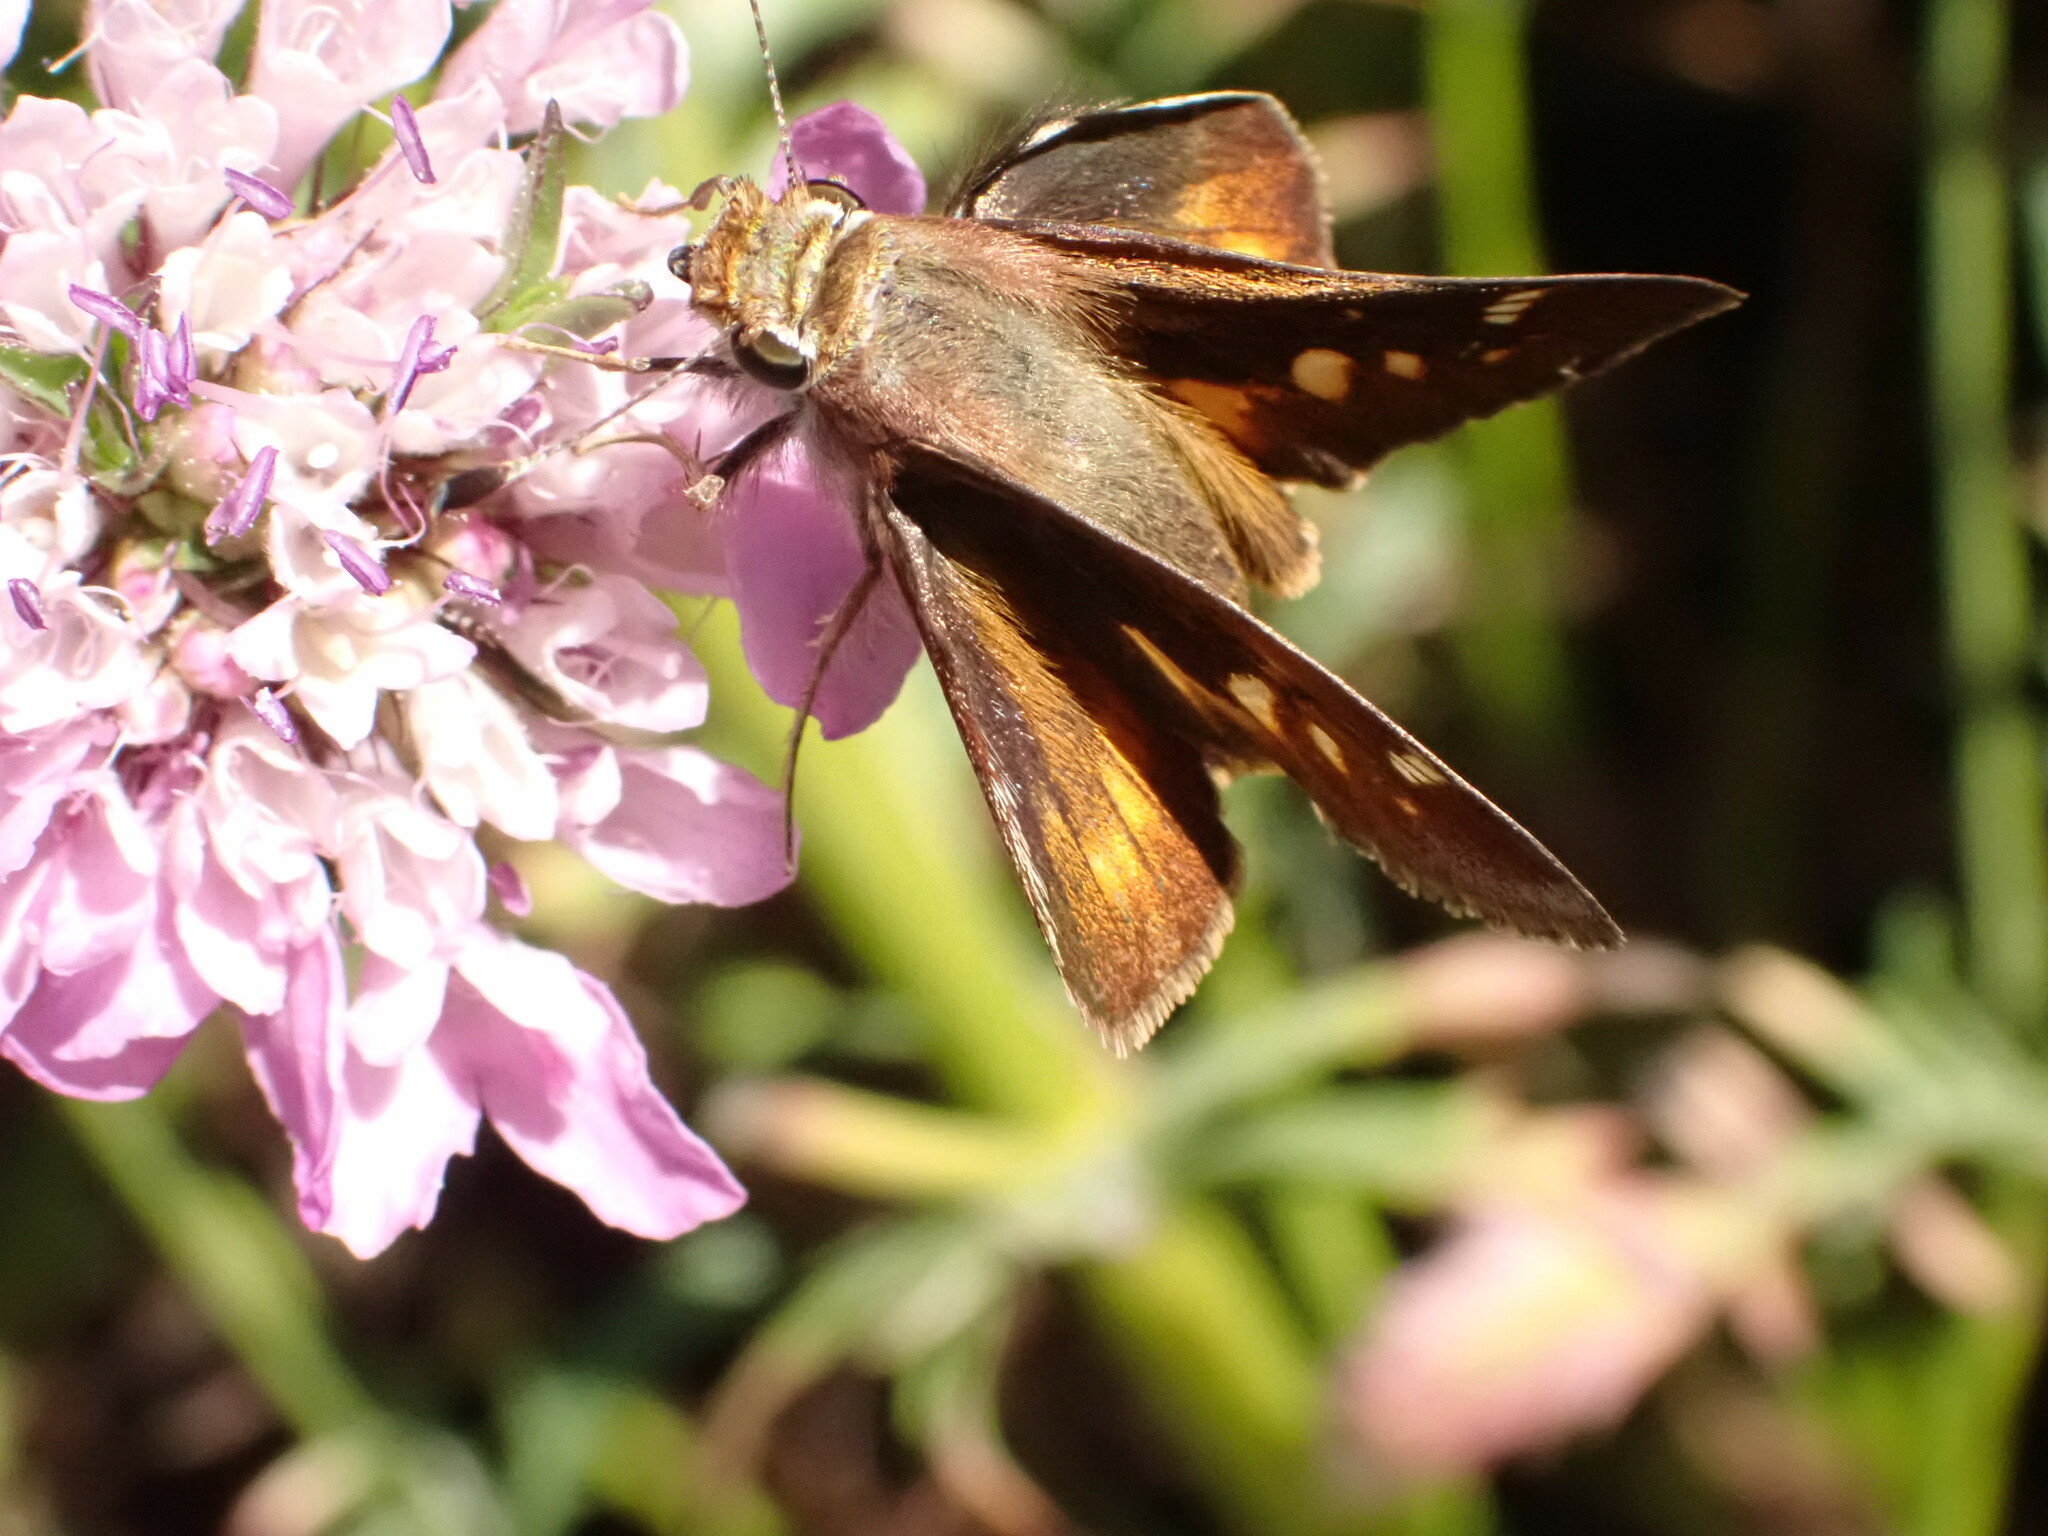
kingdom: Animalia
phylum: Arthropoda
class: Insecta
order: Lepidoptera
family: Hesperiidae
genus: Lon
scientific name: Lon melane
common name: Umber skipper
